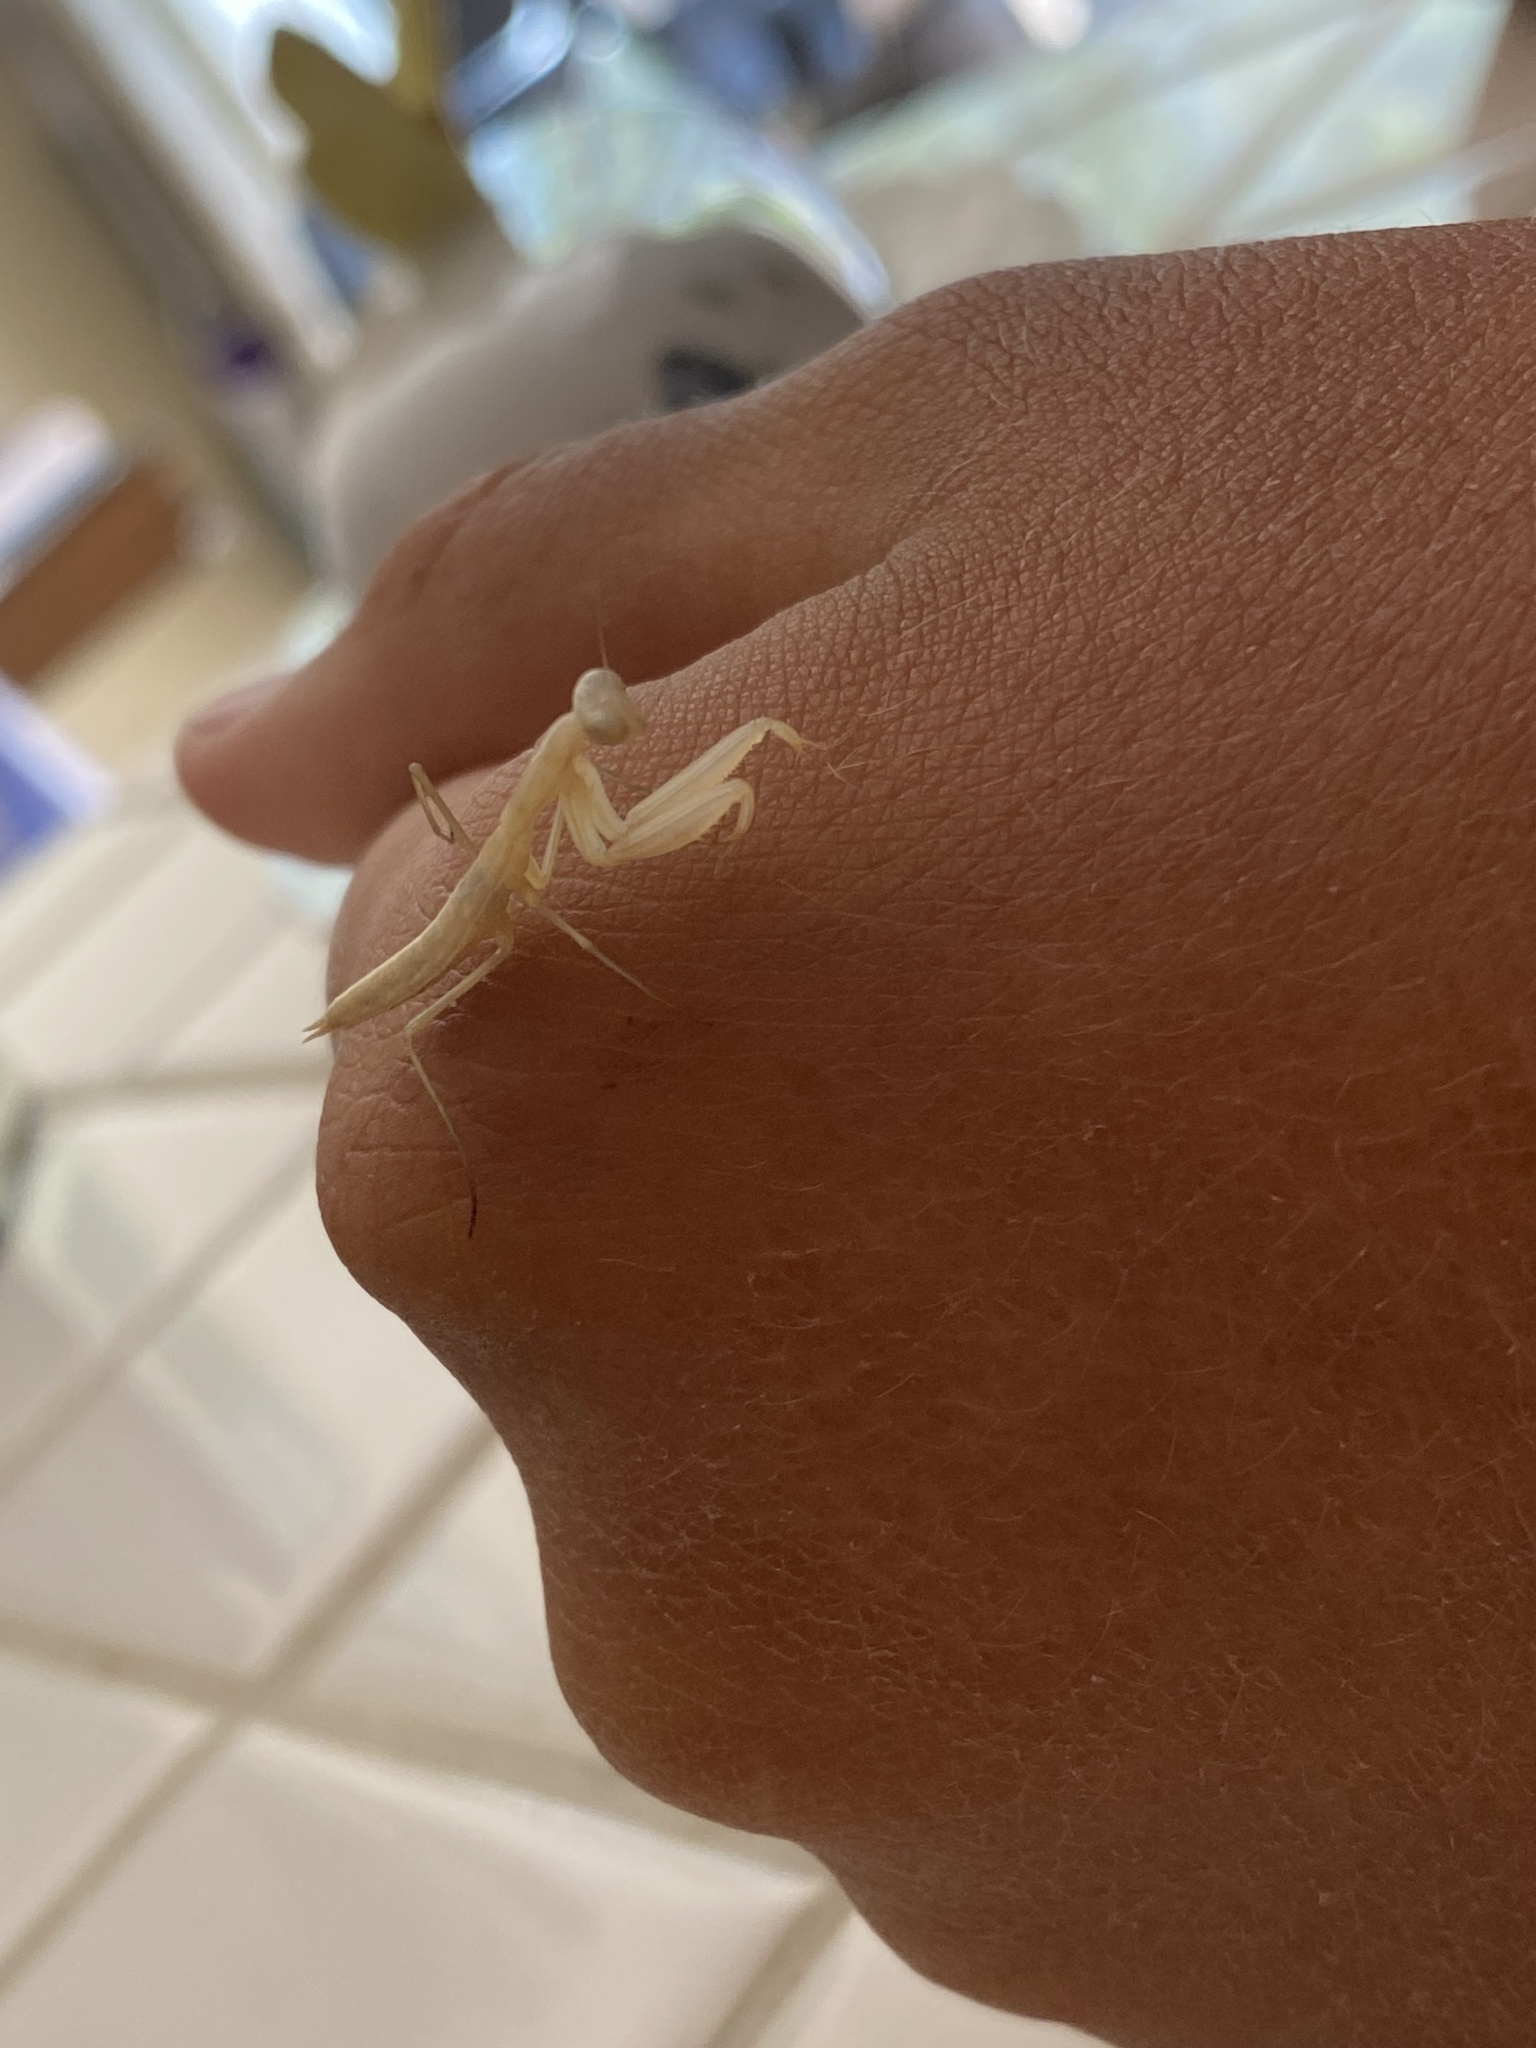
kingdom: Animalia
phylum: Arthropoda
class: Insecta
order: Mantodea
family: Mantidae
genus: Mantis
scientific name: Mantis religiosa
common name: Praying mantis
